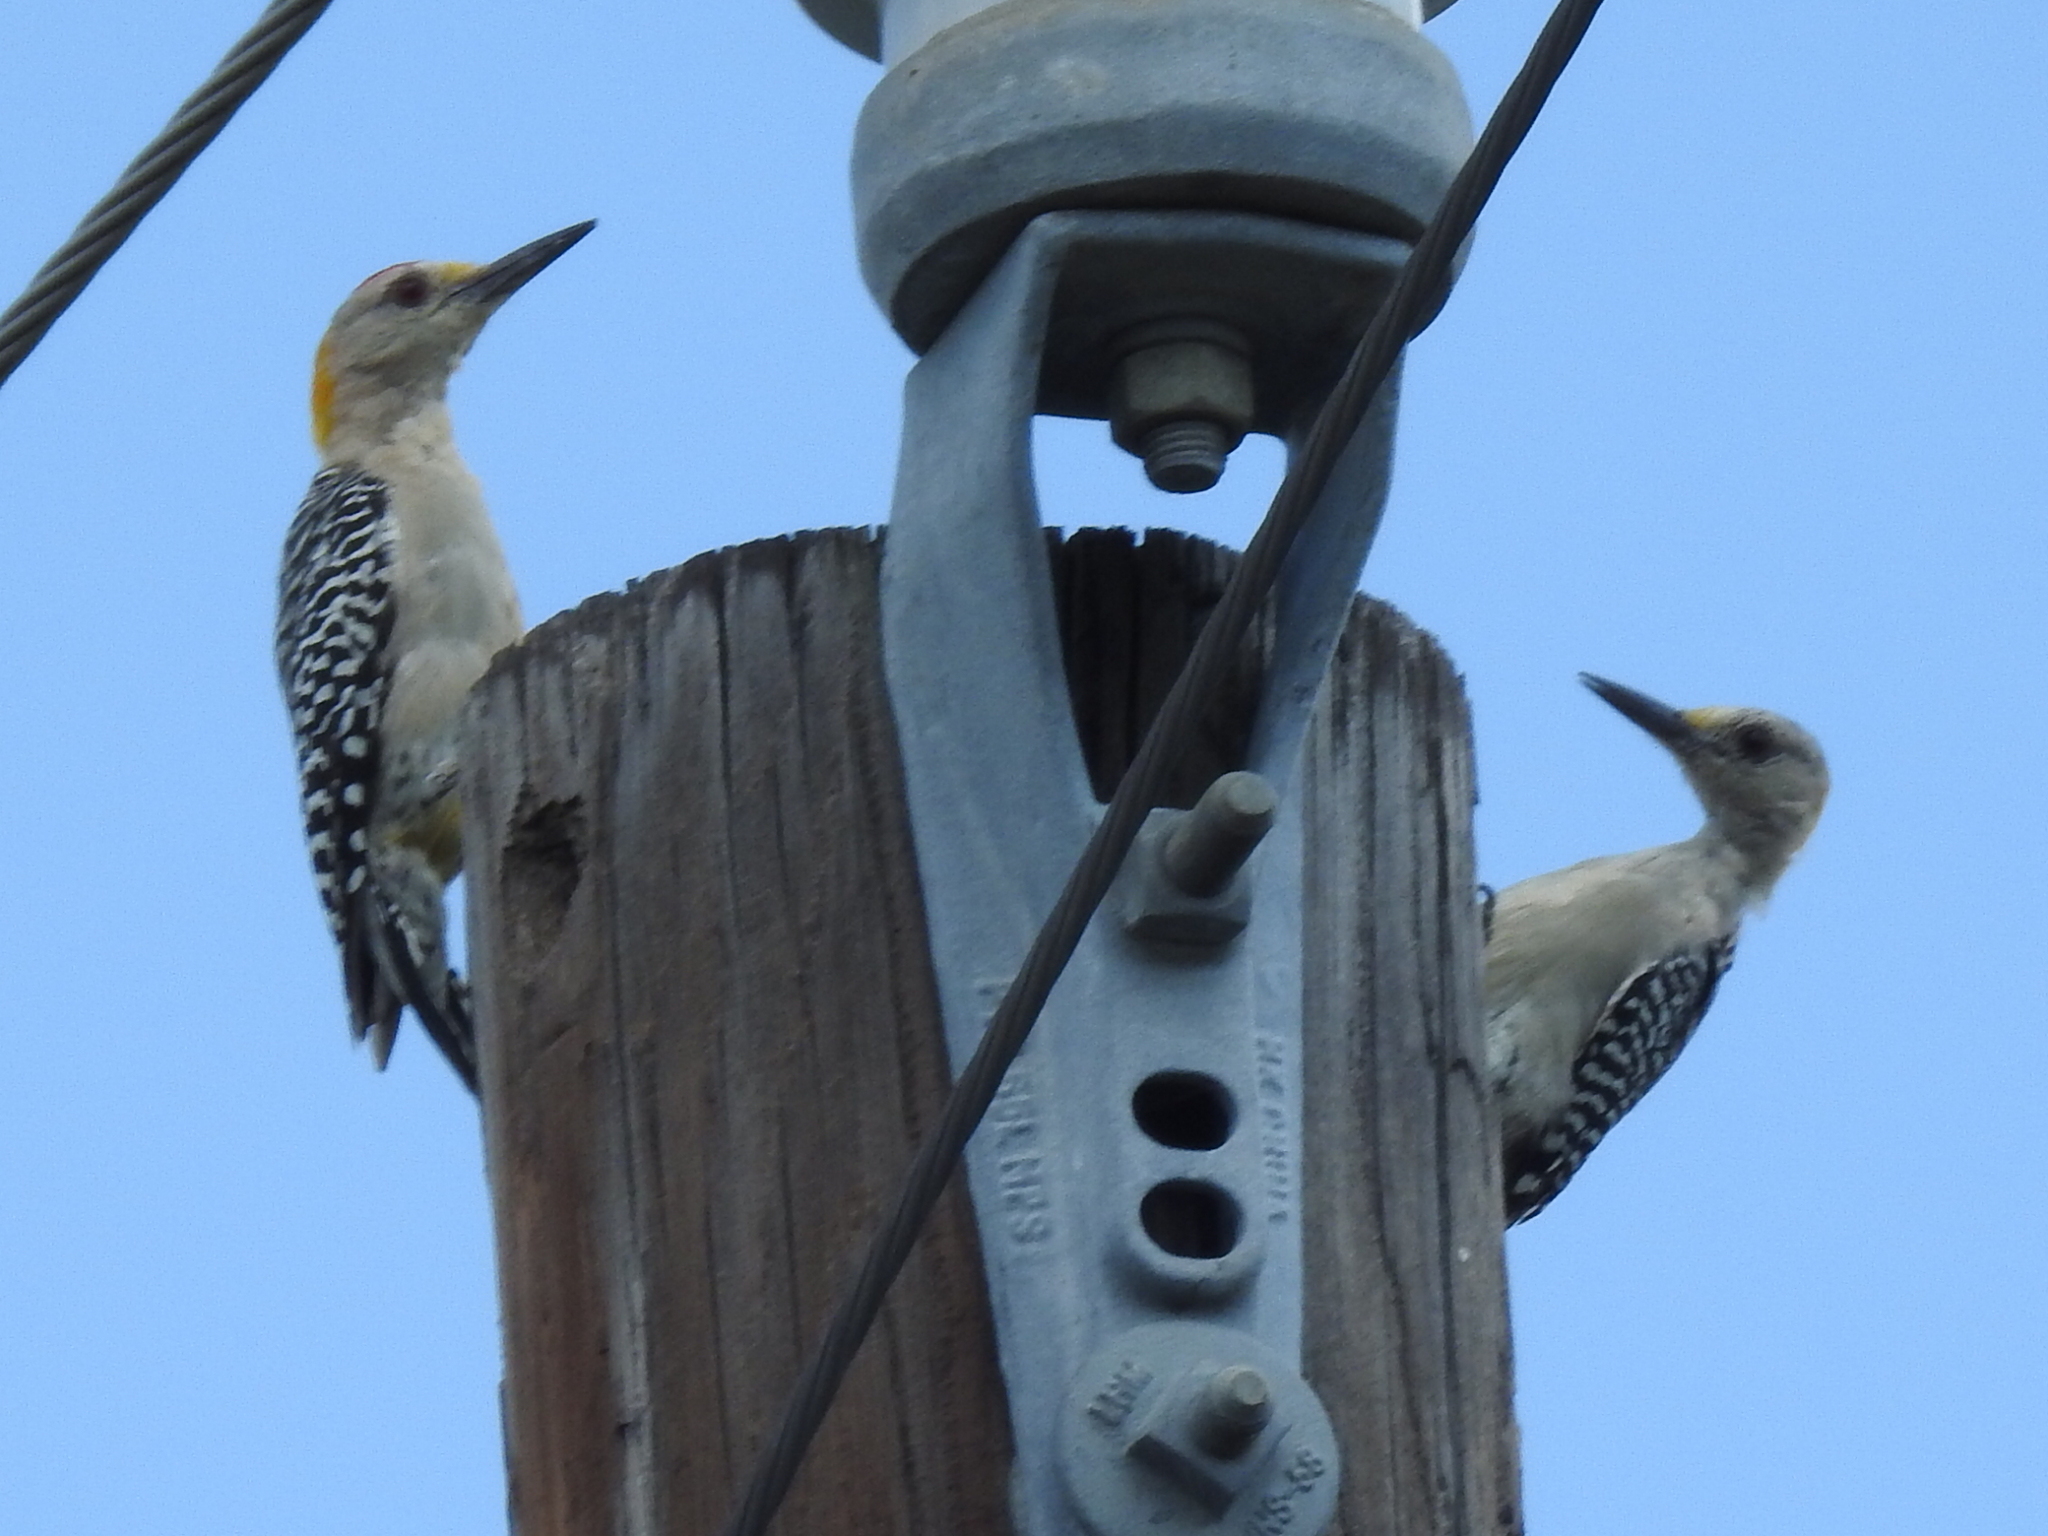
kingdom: Animalia
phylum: Chordata
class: Aves
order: Piciformes
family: Picidae
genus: Melanerpes
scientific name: Melanerpes aurifrons
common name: Golden-fronted woodpecker
